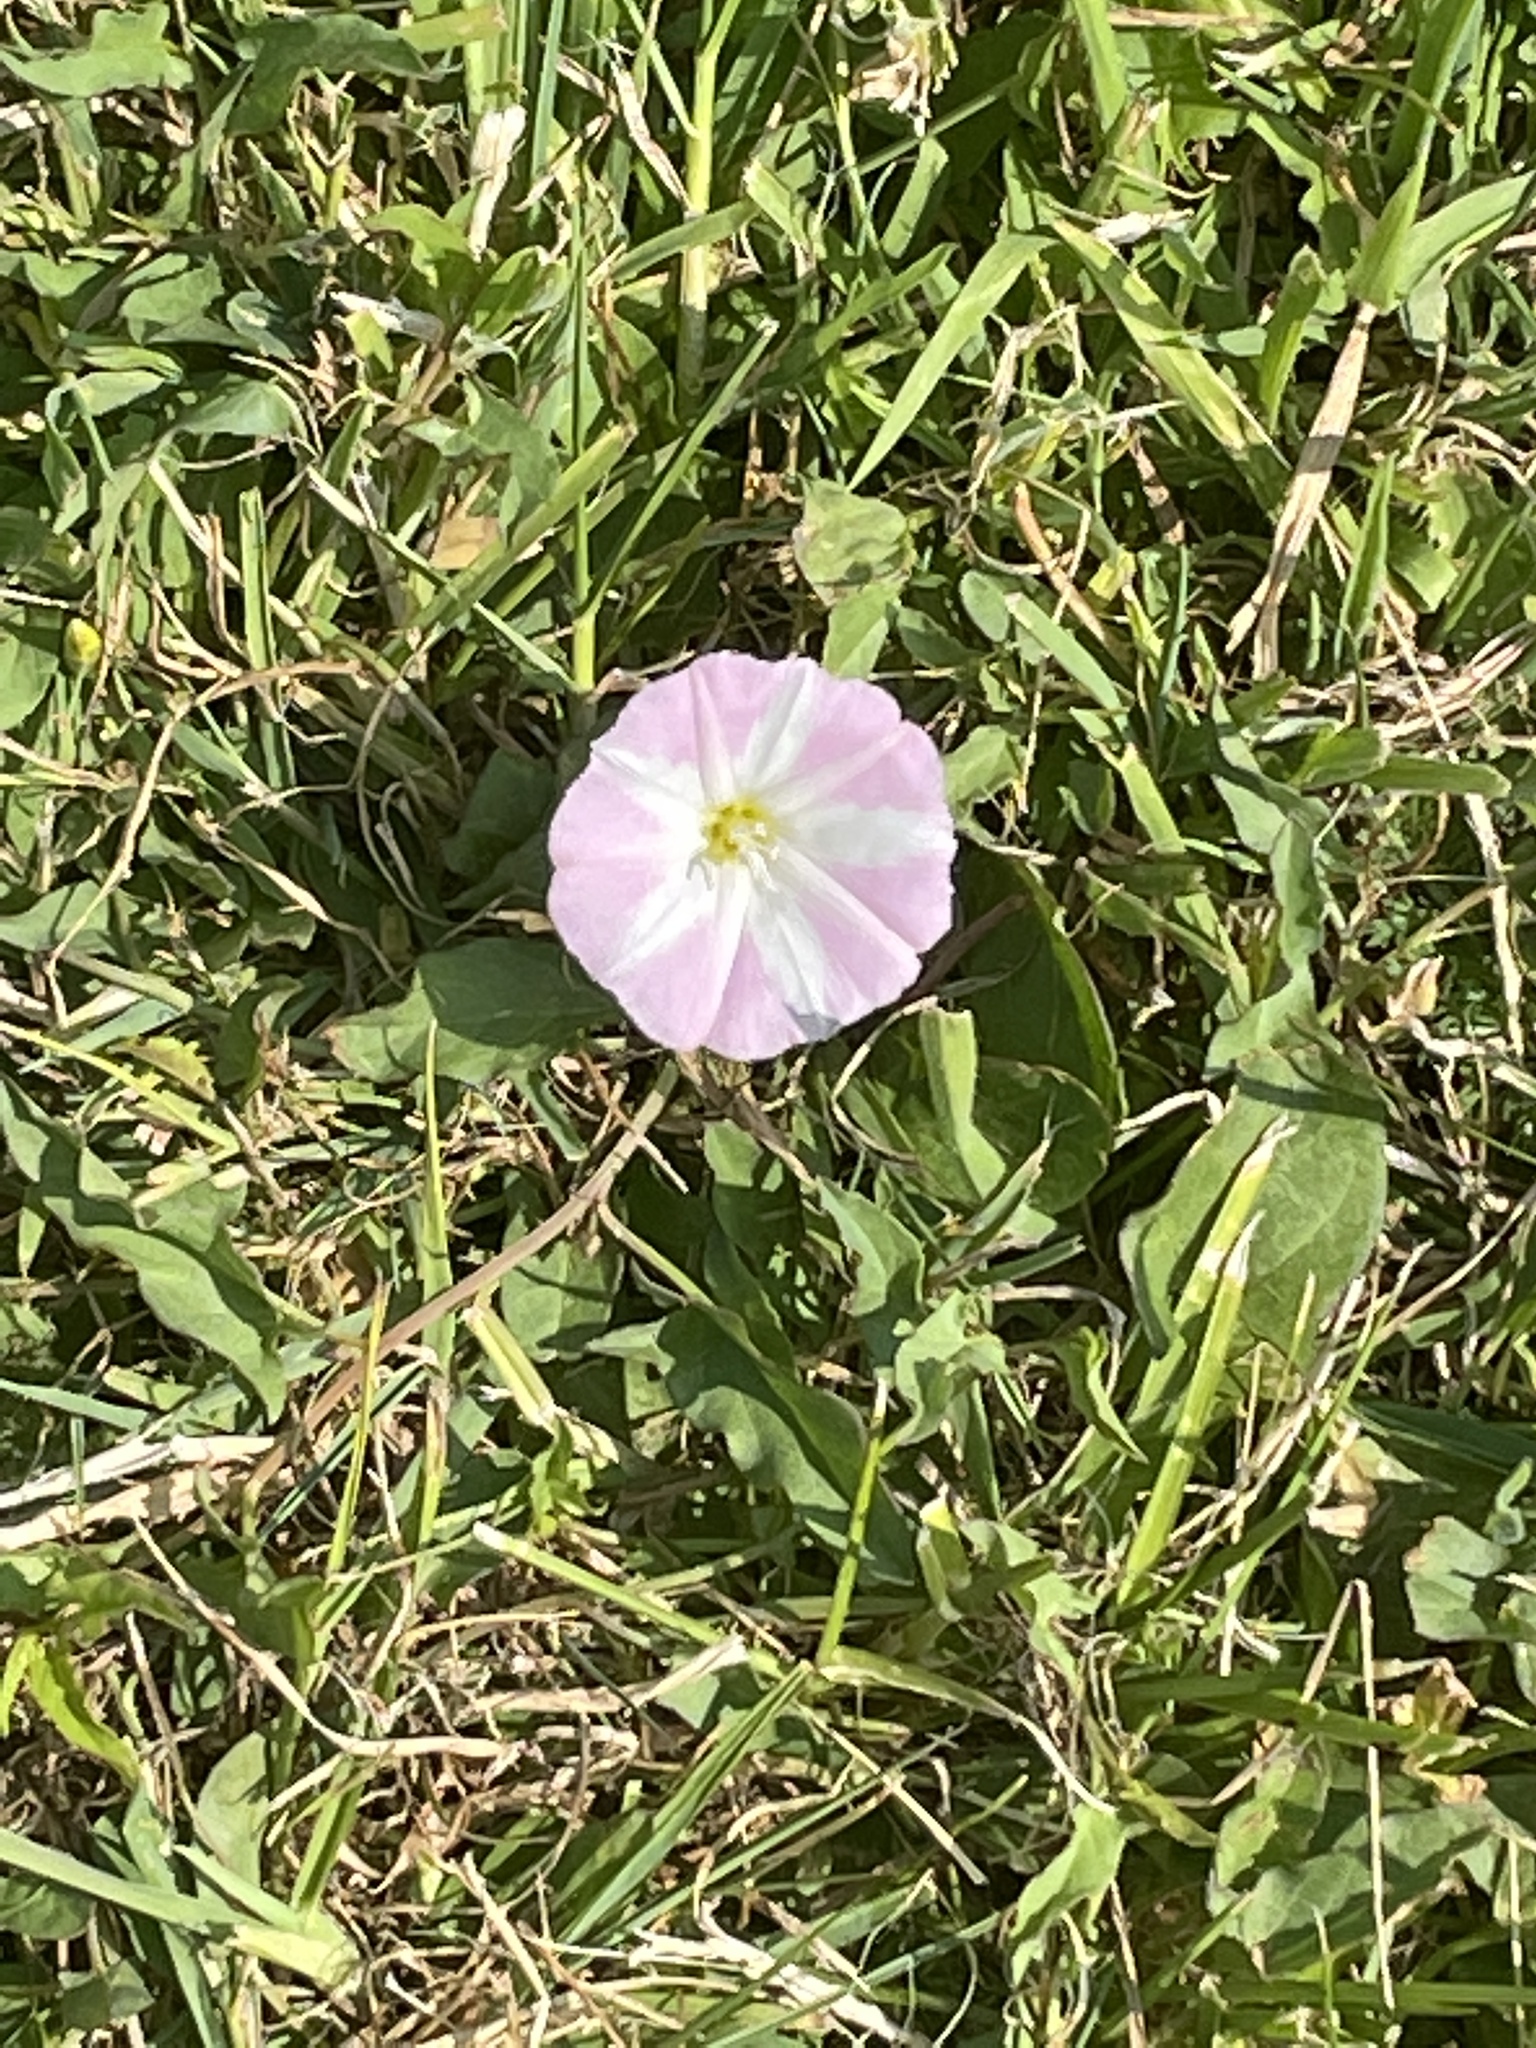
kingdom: Plantae
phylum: Tracheophyta
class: Magnoliopsida
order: Solanales
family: Convolvulaceae
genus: Convolvulus
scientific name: Convolvulus arvensis
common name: Field bindweed
